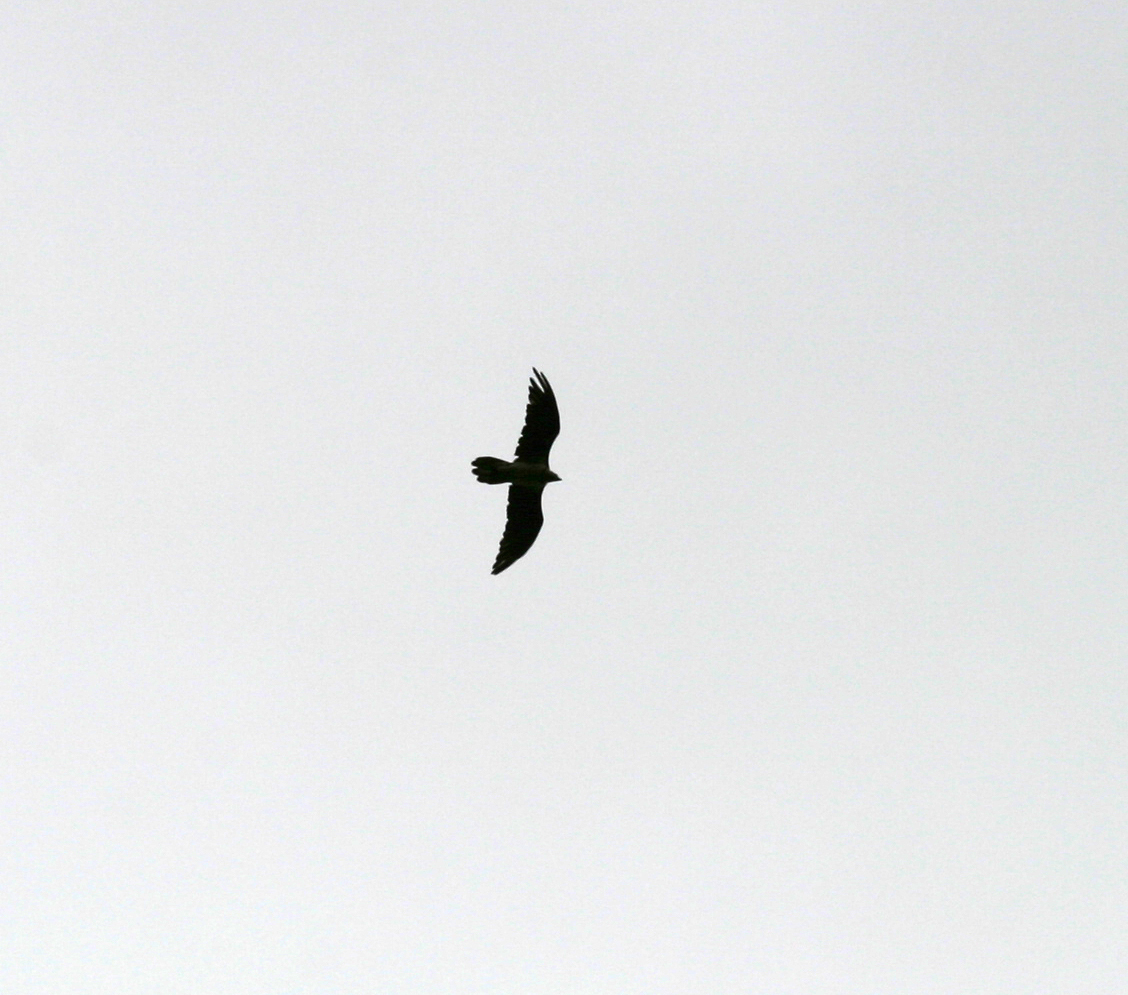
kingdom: Animalia
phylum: Chordata
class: Aves
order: Accipitriformes
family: Accipitridae
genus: Gypaetus
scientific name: Gypaetus barbatus
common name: Bearded vulture
